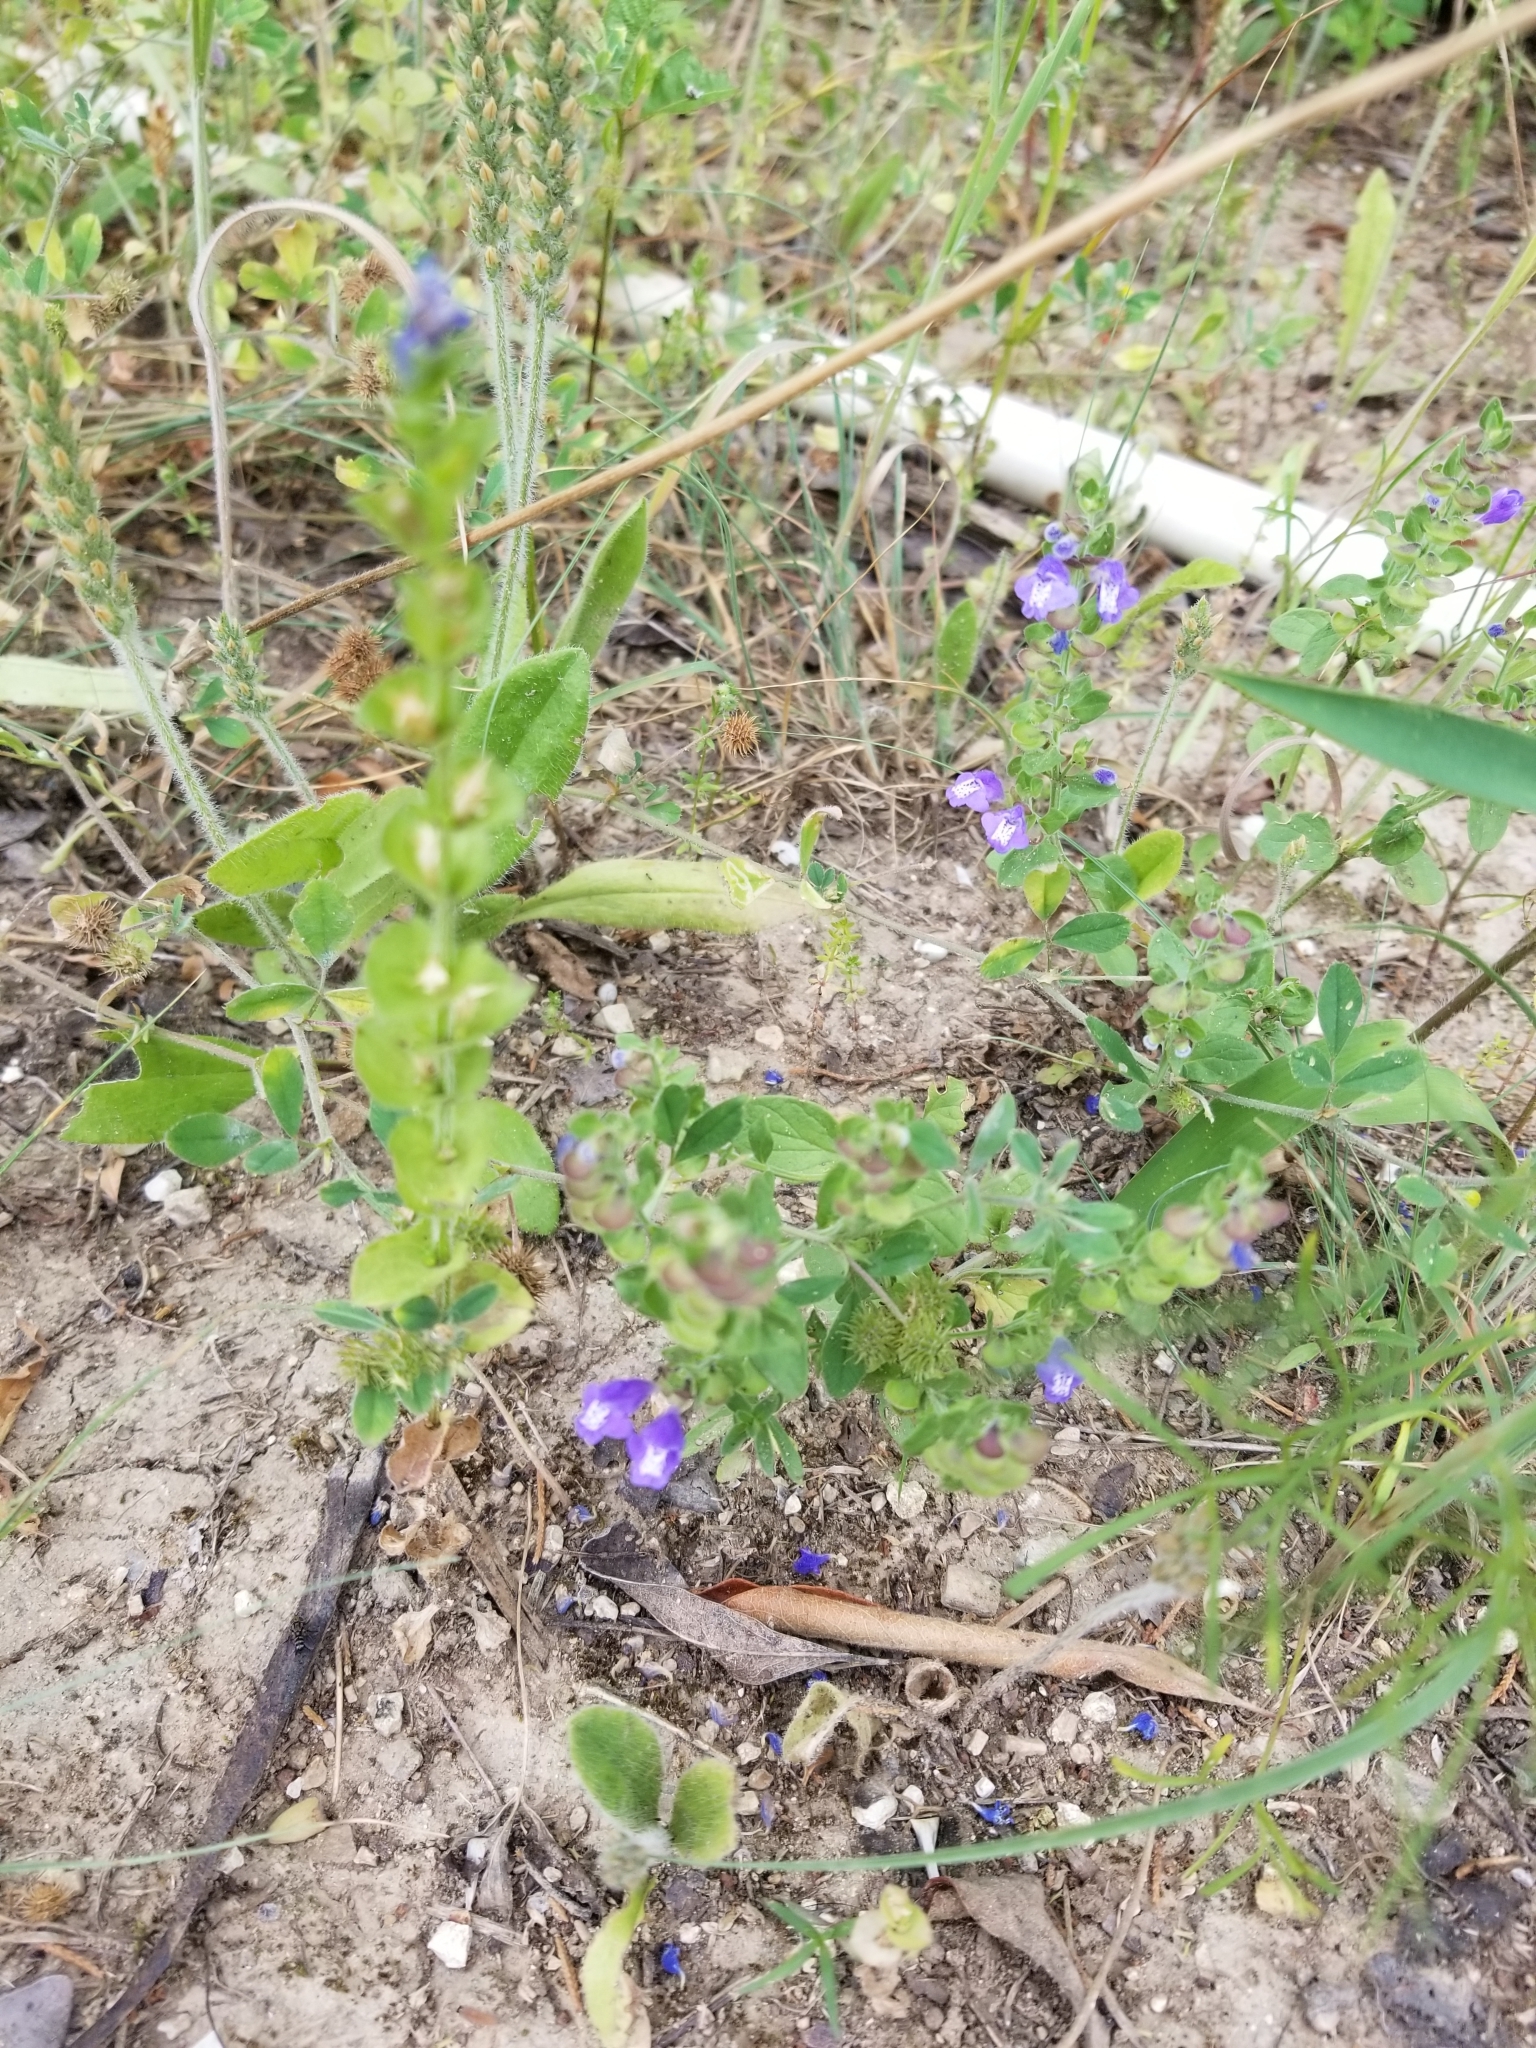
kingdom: Plantae
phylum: Tracheophyta
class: Magnoliopsida
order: Lamiales
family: Lamiaceae
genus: Scutellaria
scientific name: Scutellaria drummondii
